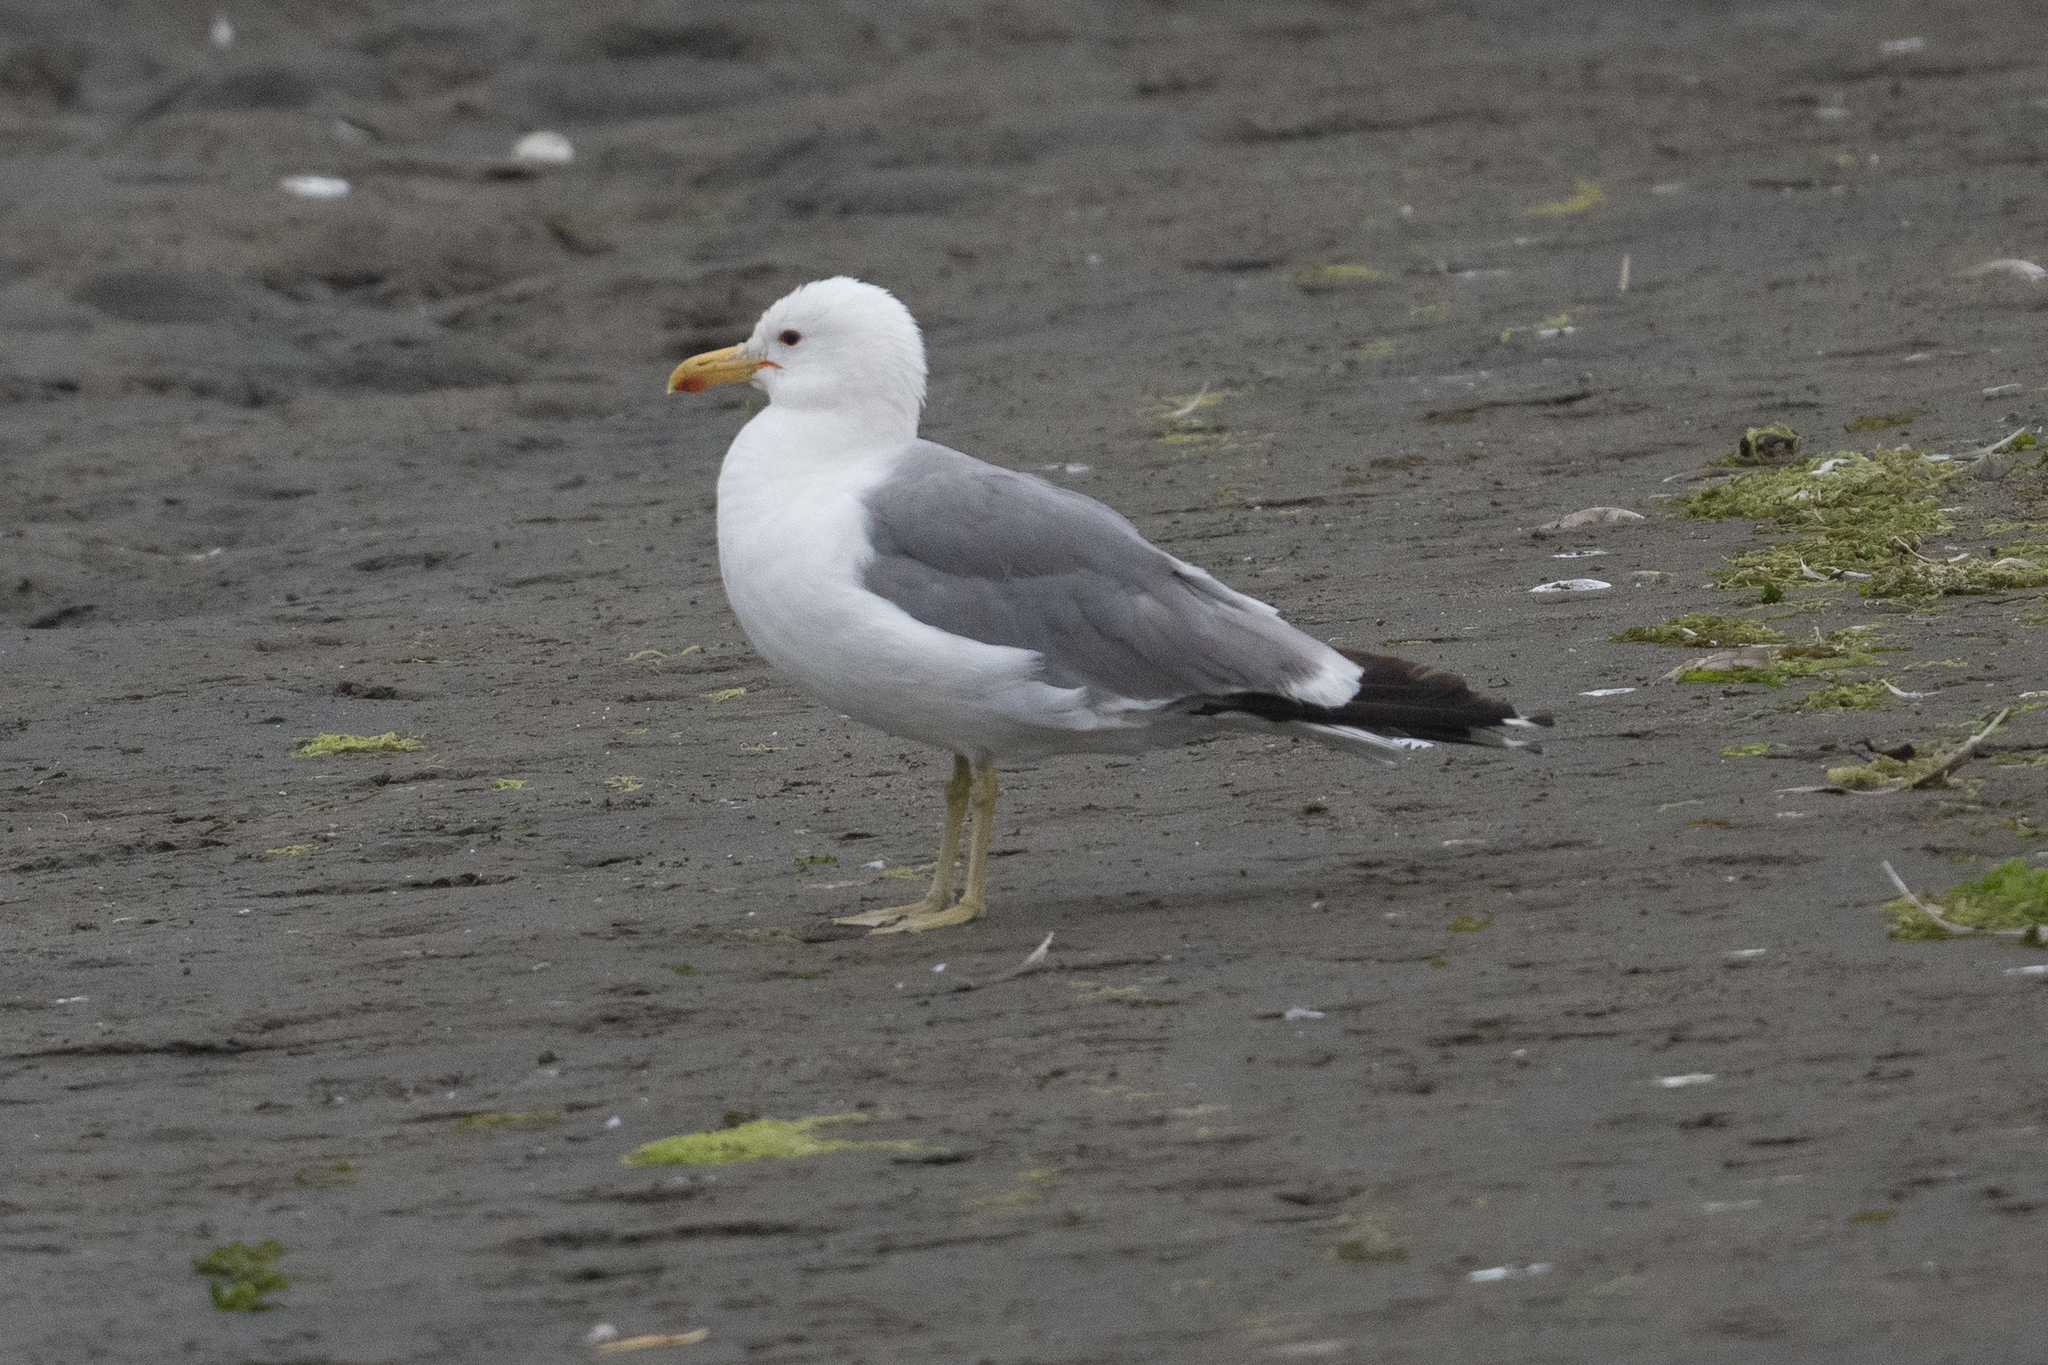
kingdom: Animalia
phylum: Chordata
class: Aves
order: Charadriiformes
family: Laridae
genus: Larus
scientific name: Larus californicus
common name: California gull
